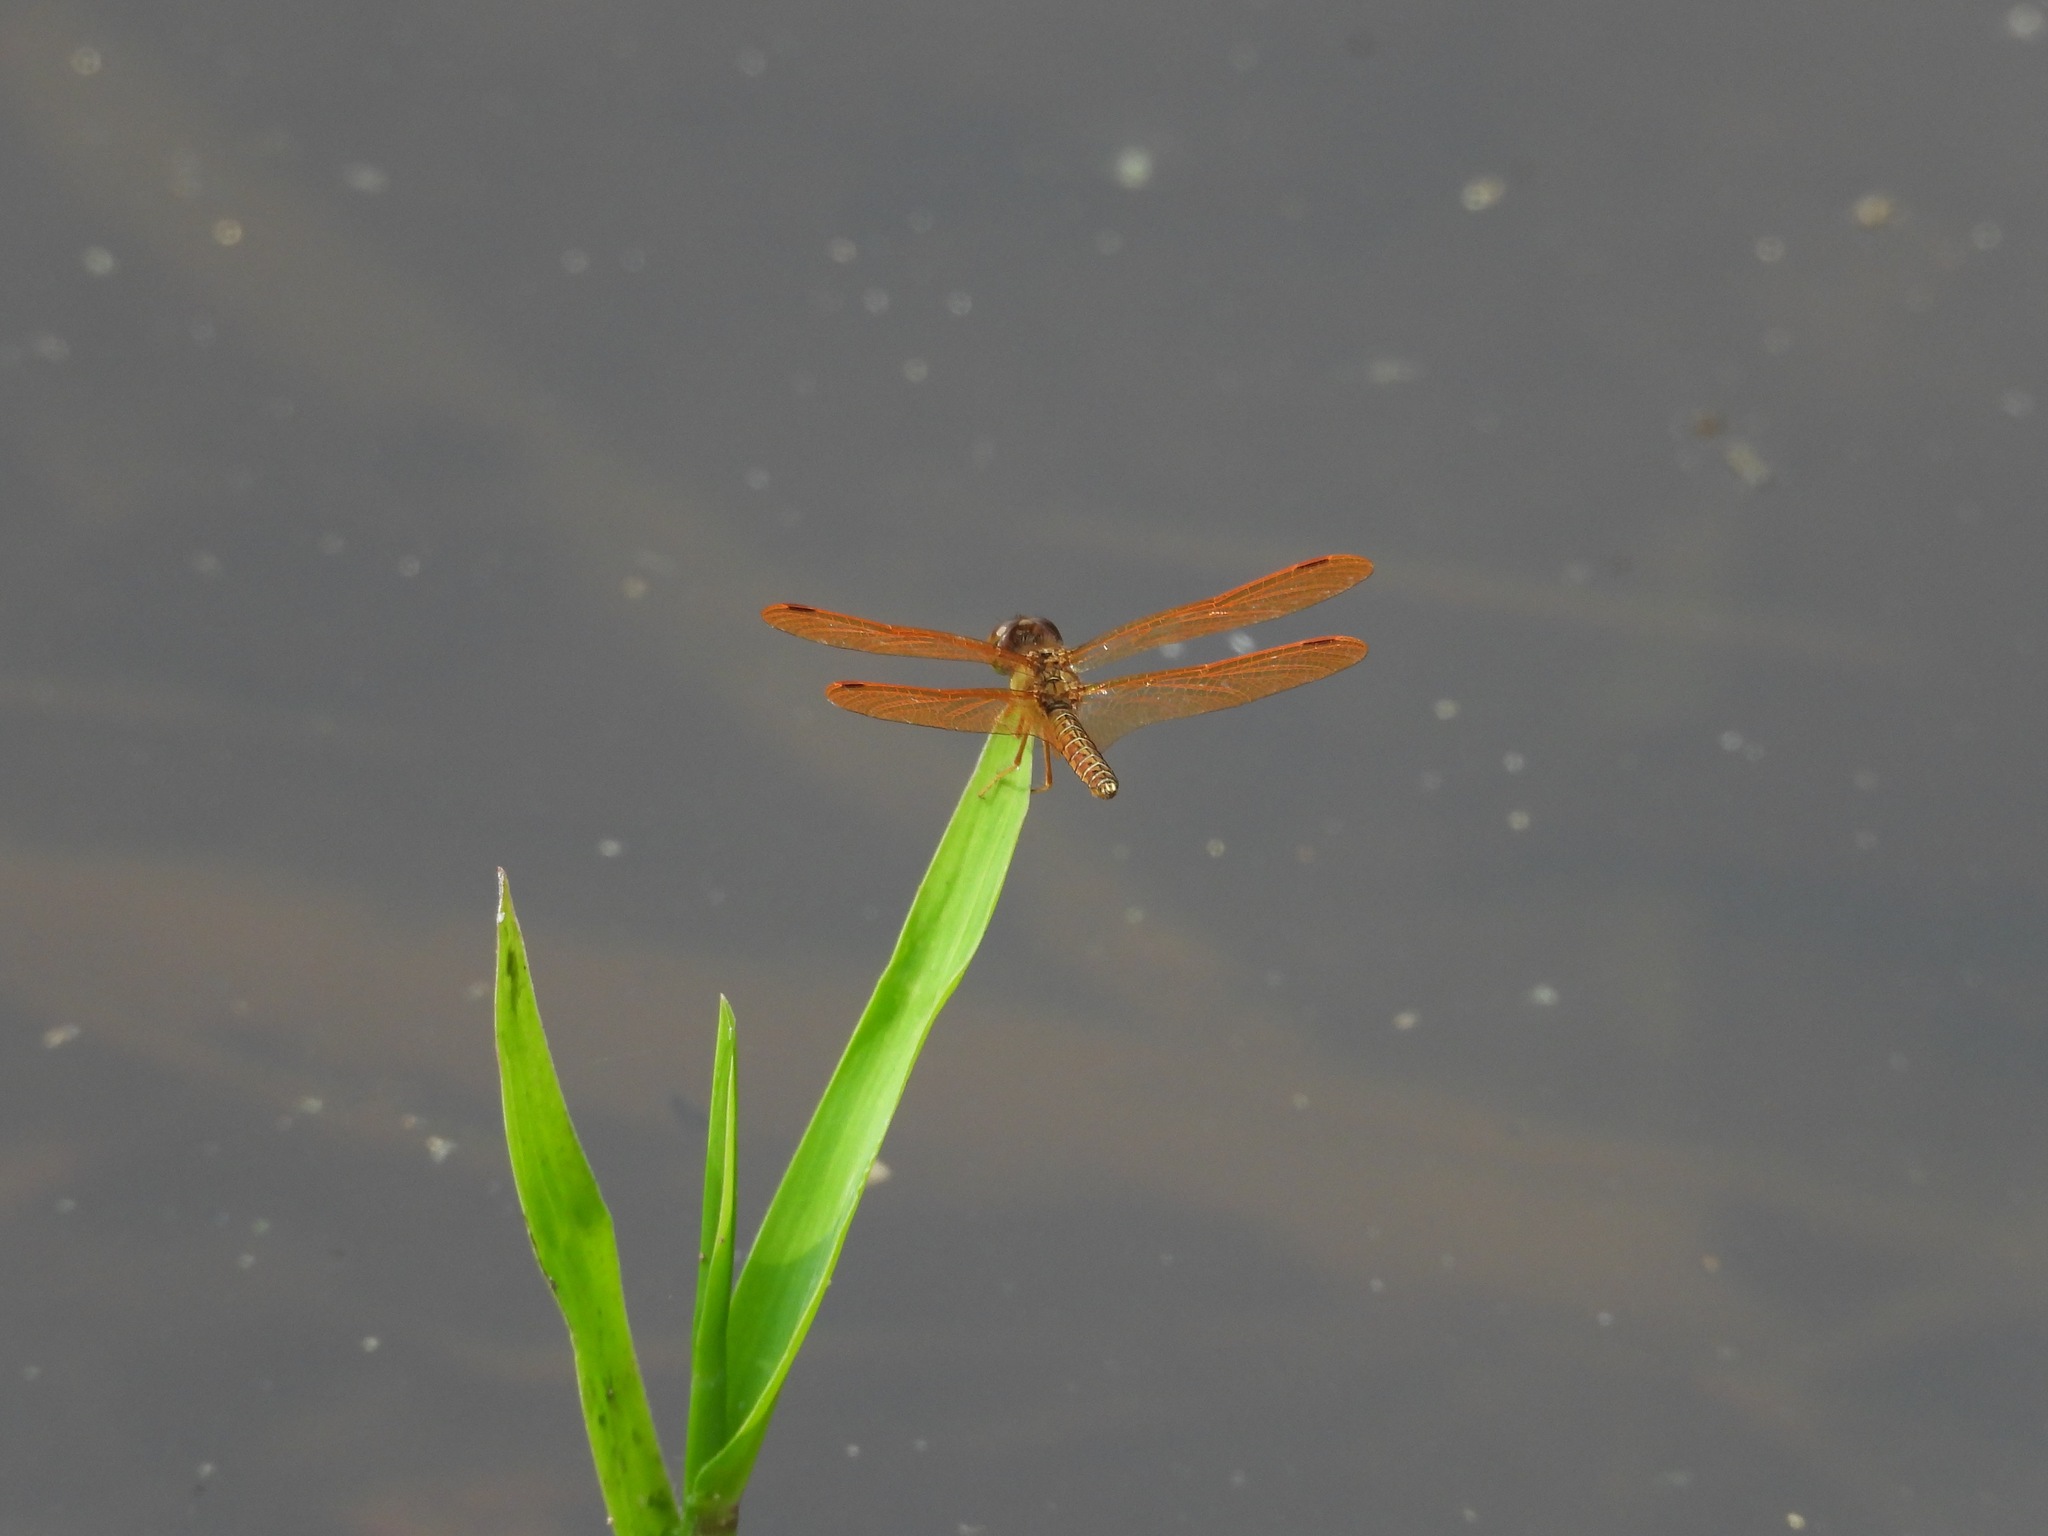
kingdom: Animalia
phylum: Arthropoda
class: Insecta
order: Odonata
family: Libellulidae
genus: Perithemis
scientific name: Perithemis tenera
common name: Eastern amberwing
